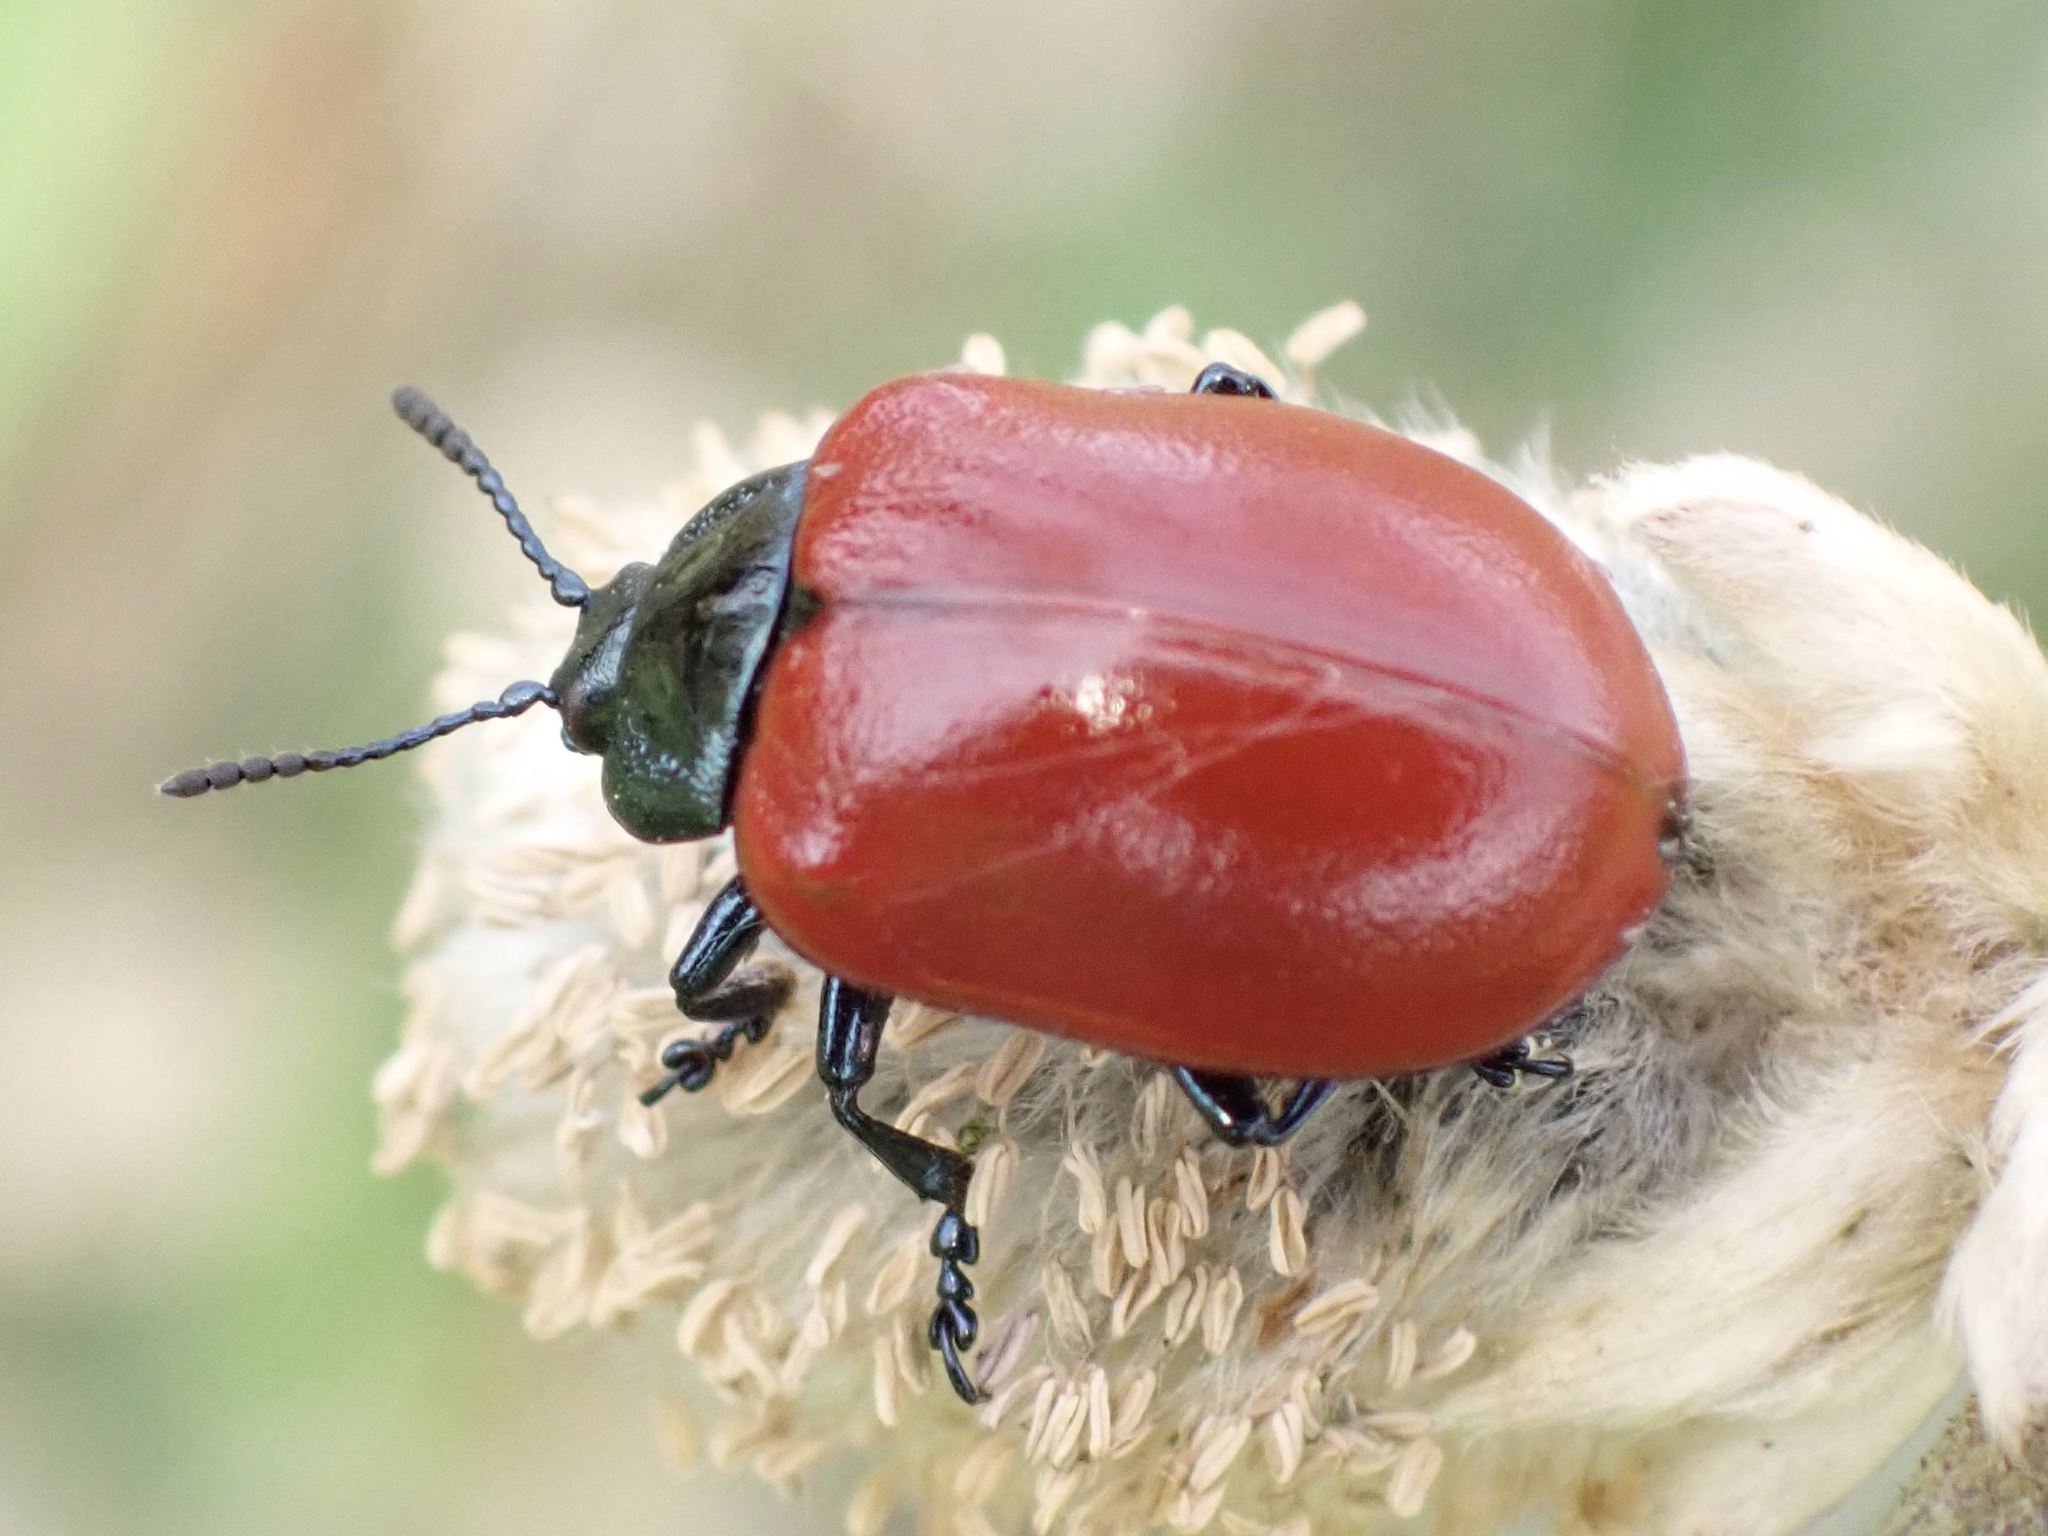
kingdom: Animalia
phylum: Arthropoda
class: Insecta
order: Coleoptera
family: Chrysomelidae
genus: Chrysomela
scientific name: Chrysomela populi
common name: Red poplar leaf beetle
